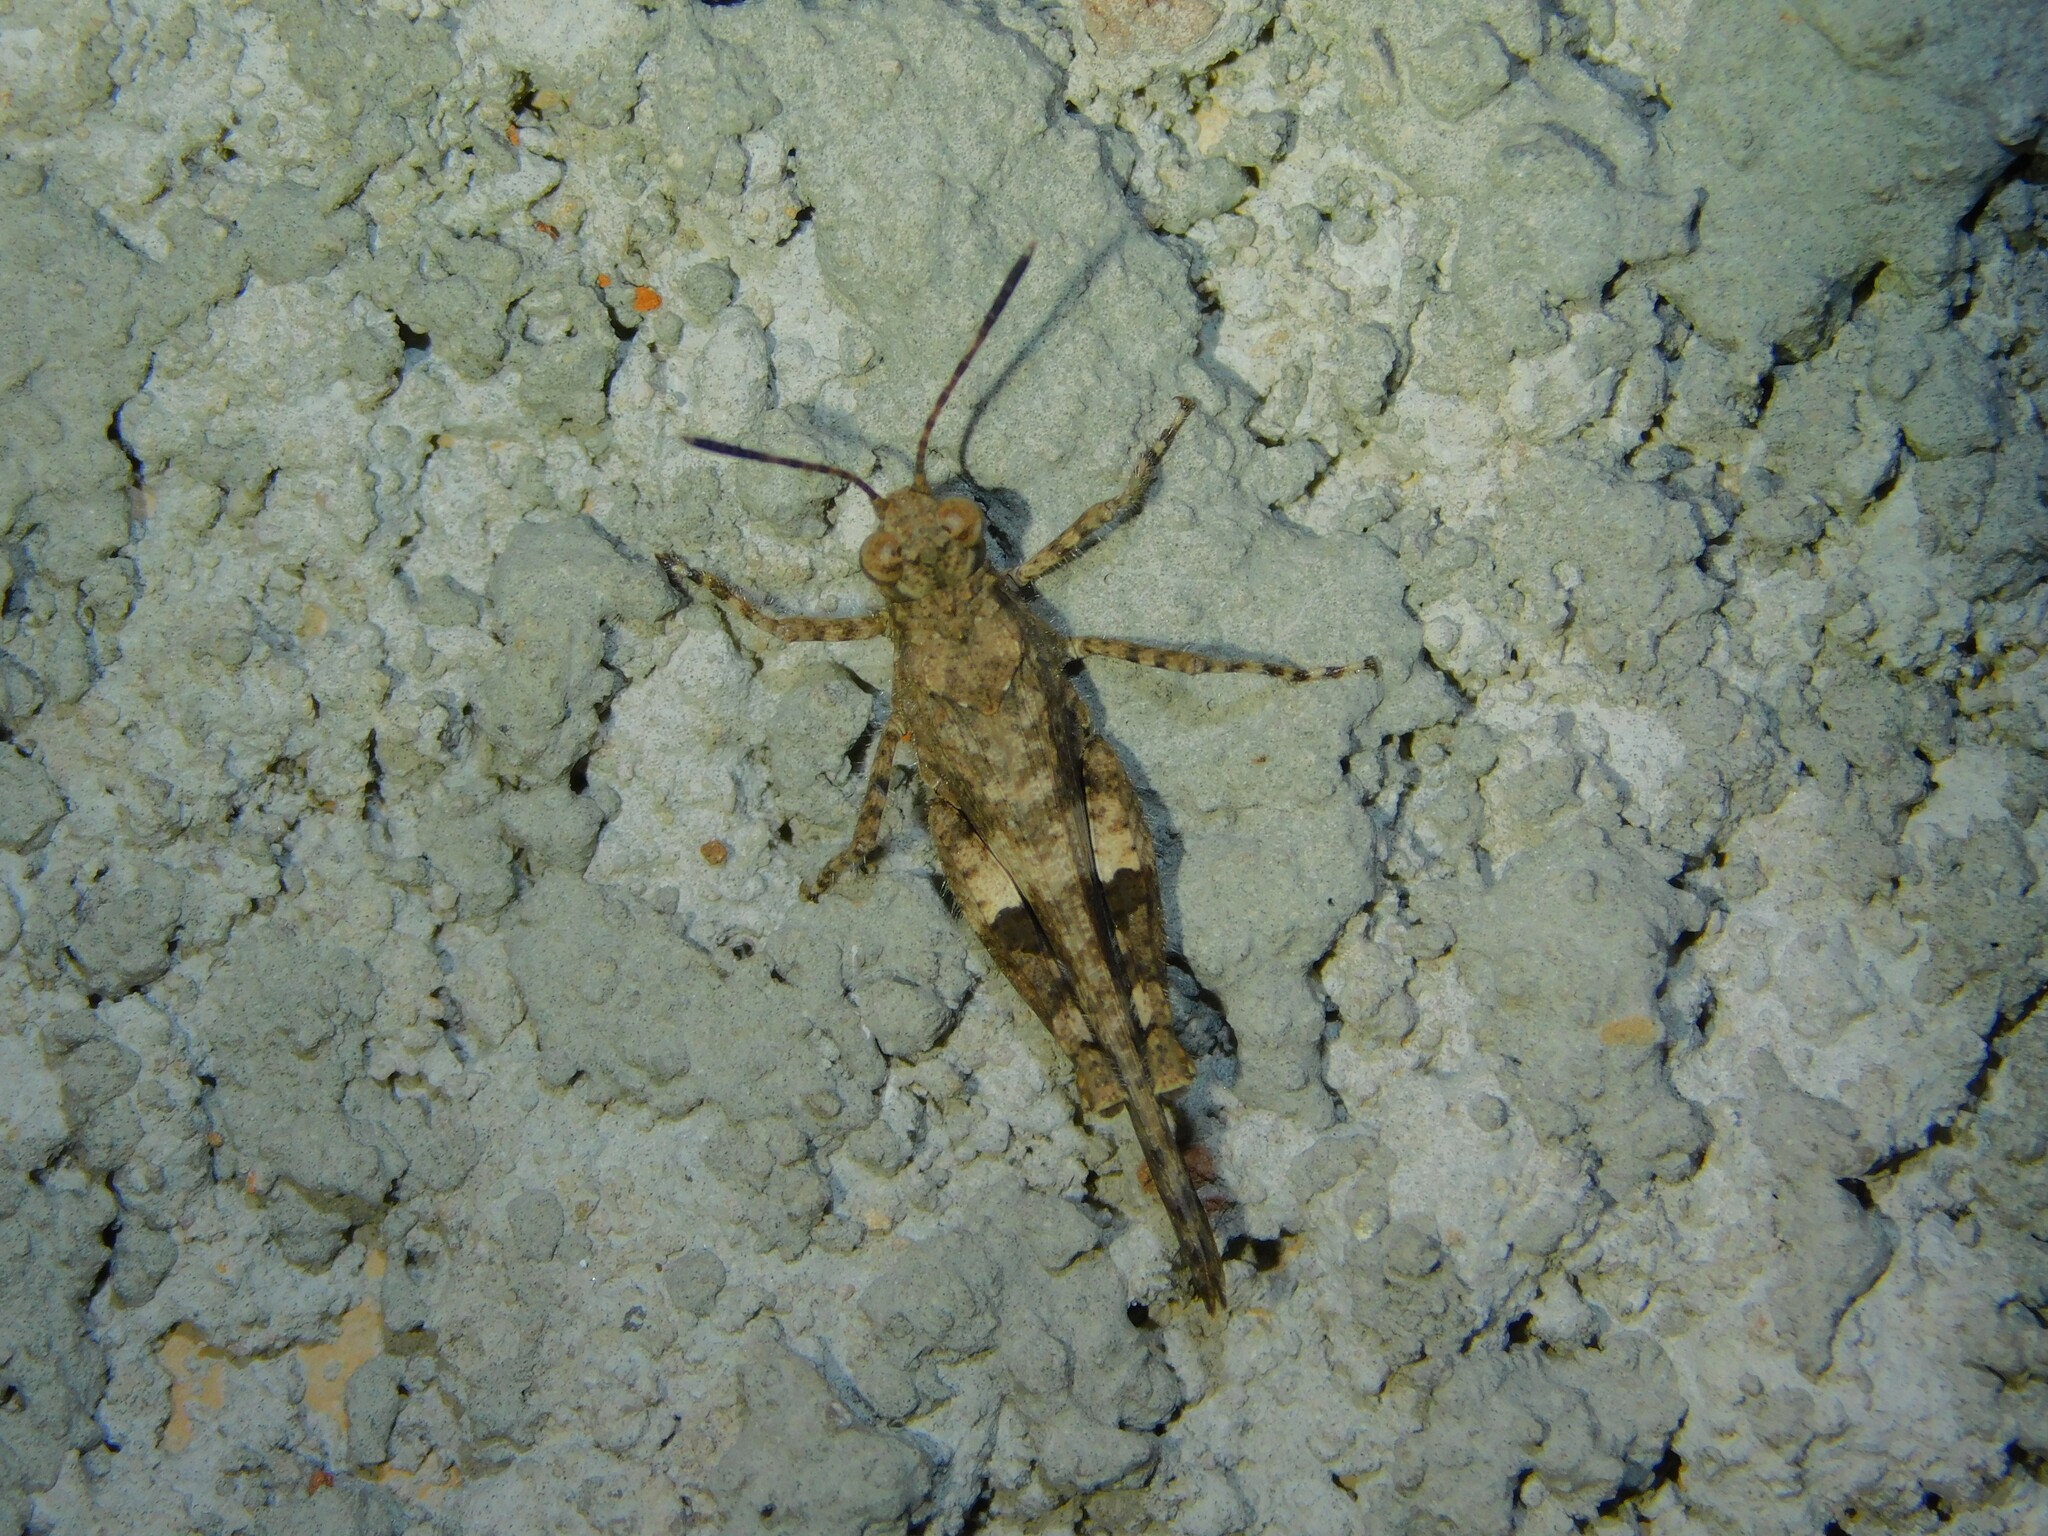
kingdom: Animalia
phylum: Arthropoda
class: Insecta
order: Orthoptera
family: Acrididae
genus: Trilophidia
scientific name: Trilophidia conturbata
